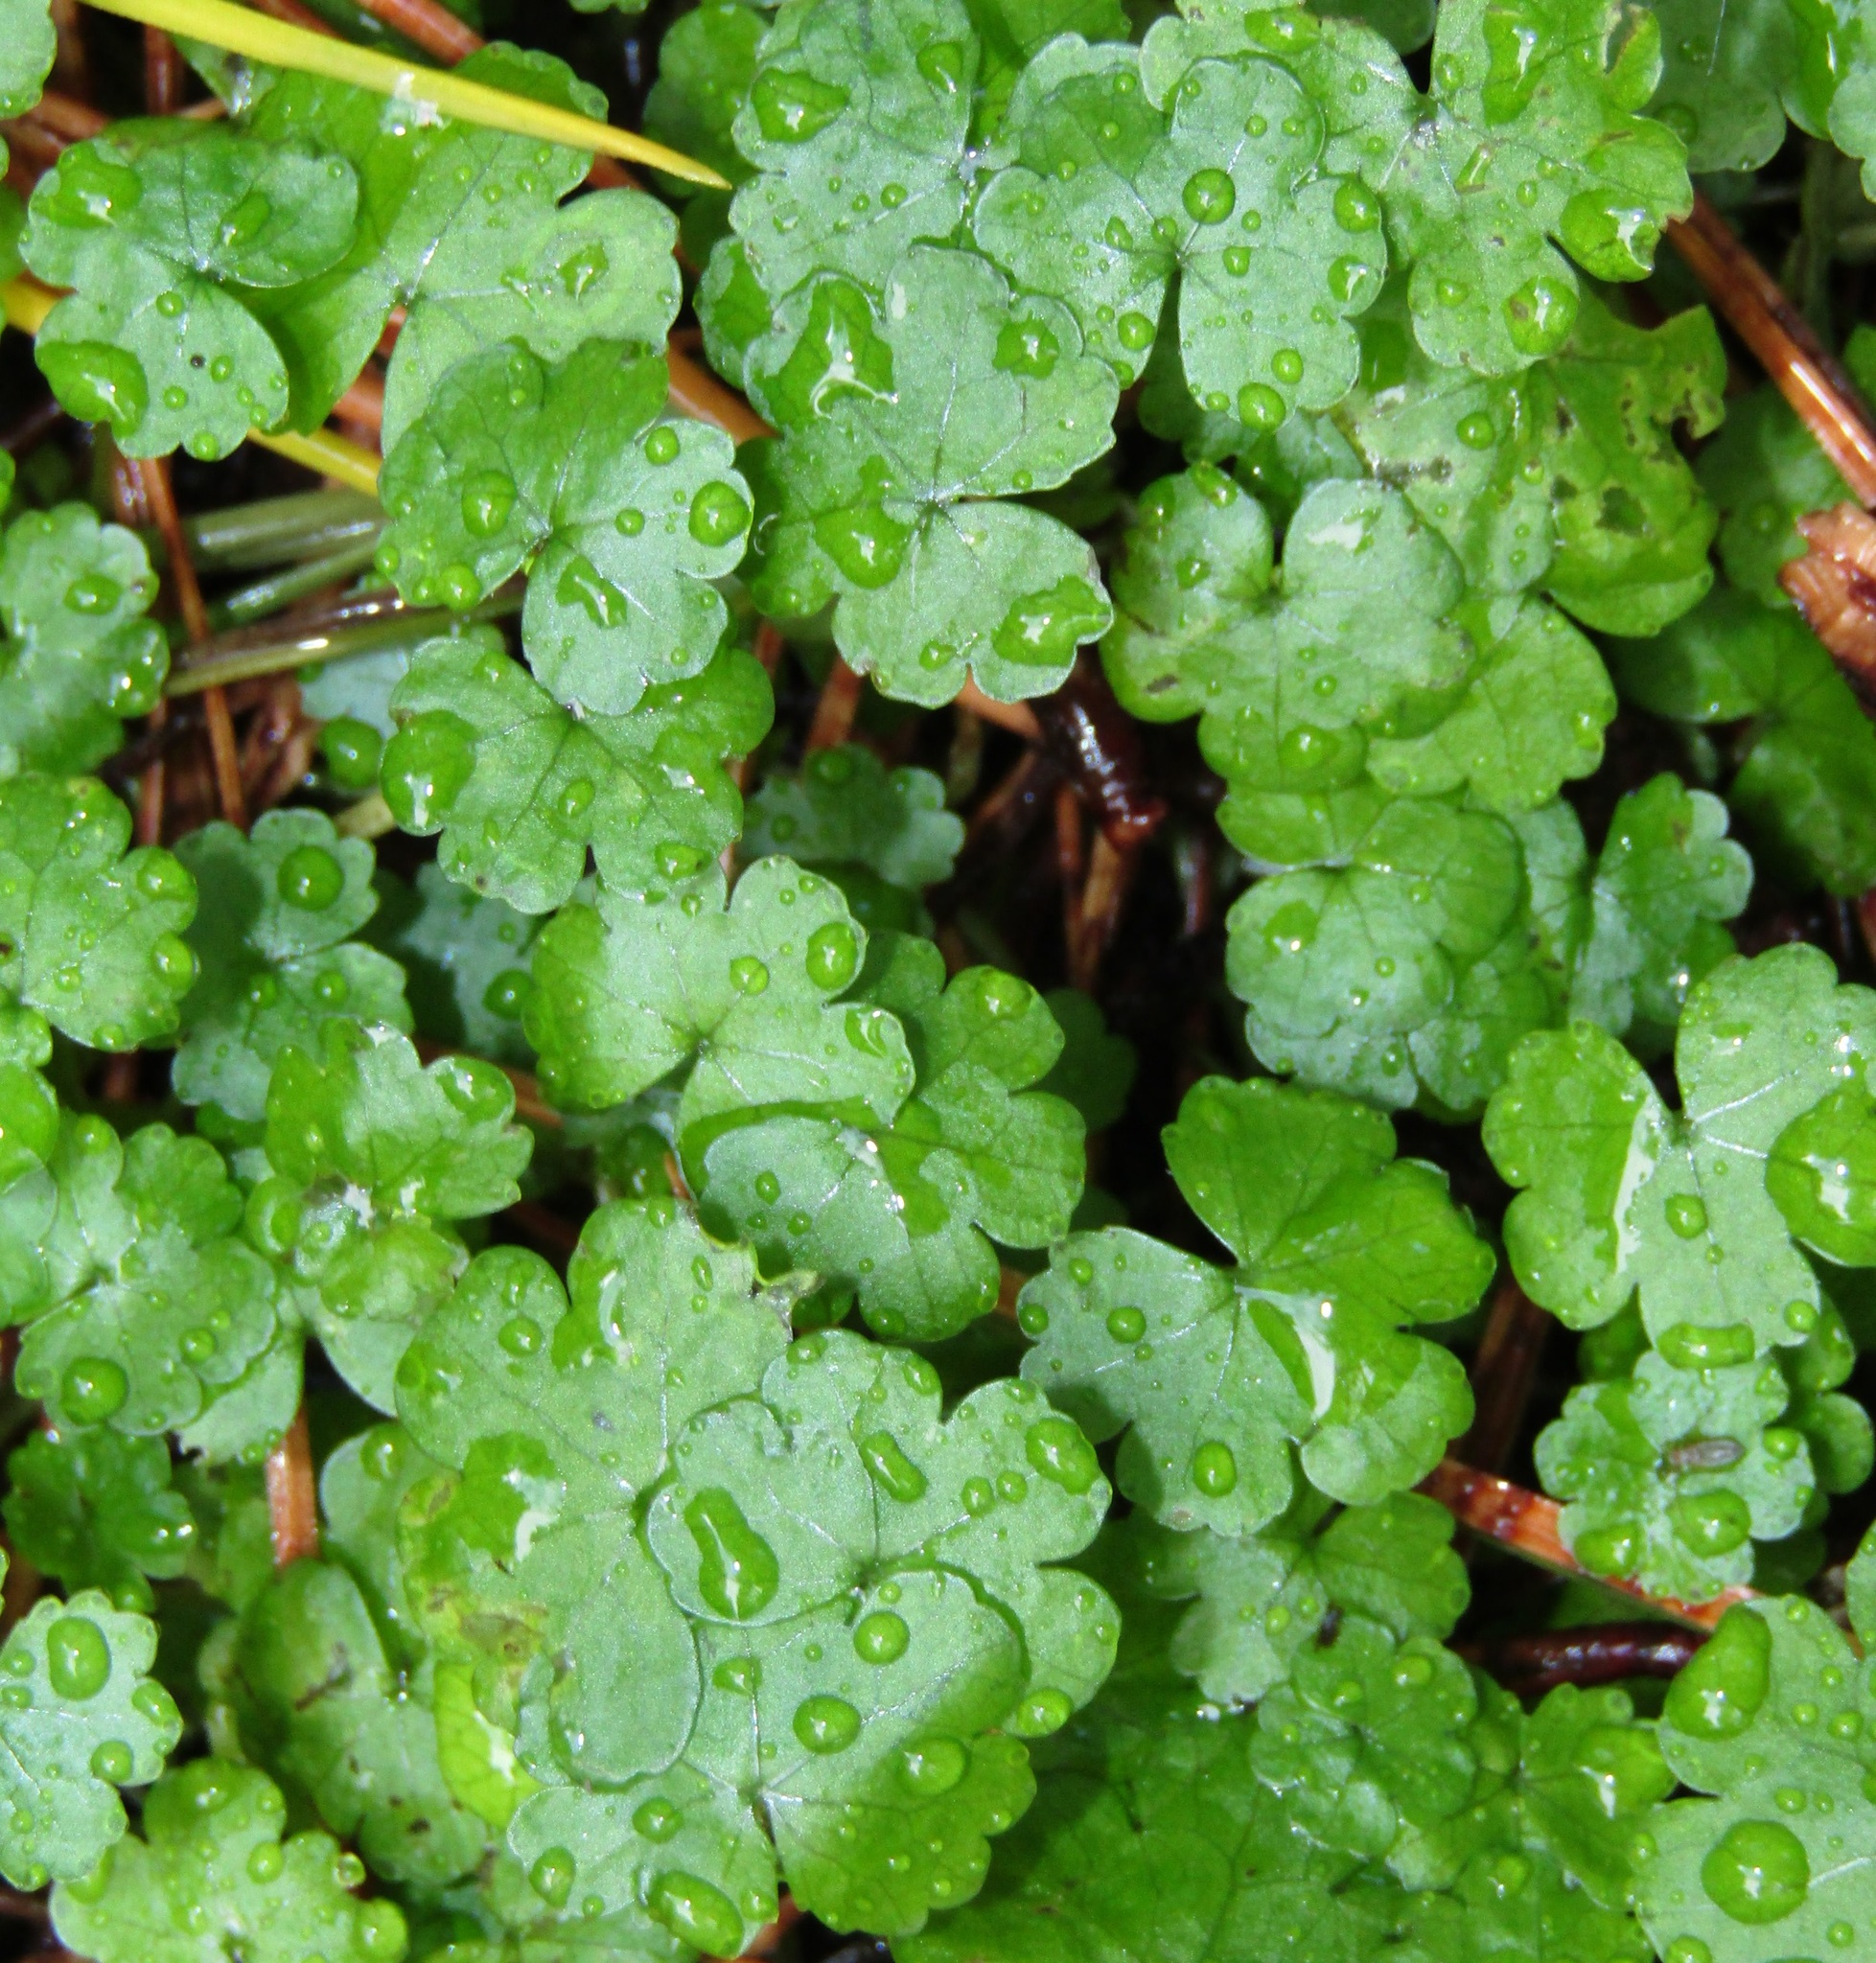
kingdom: Plantae
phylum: Tracheophyta
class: Magnoliopsida
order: Apiales
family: Araliaceae
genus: Hydrocotyle
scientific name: Hydrocotyle heteromeria
